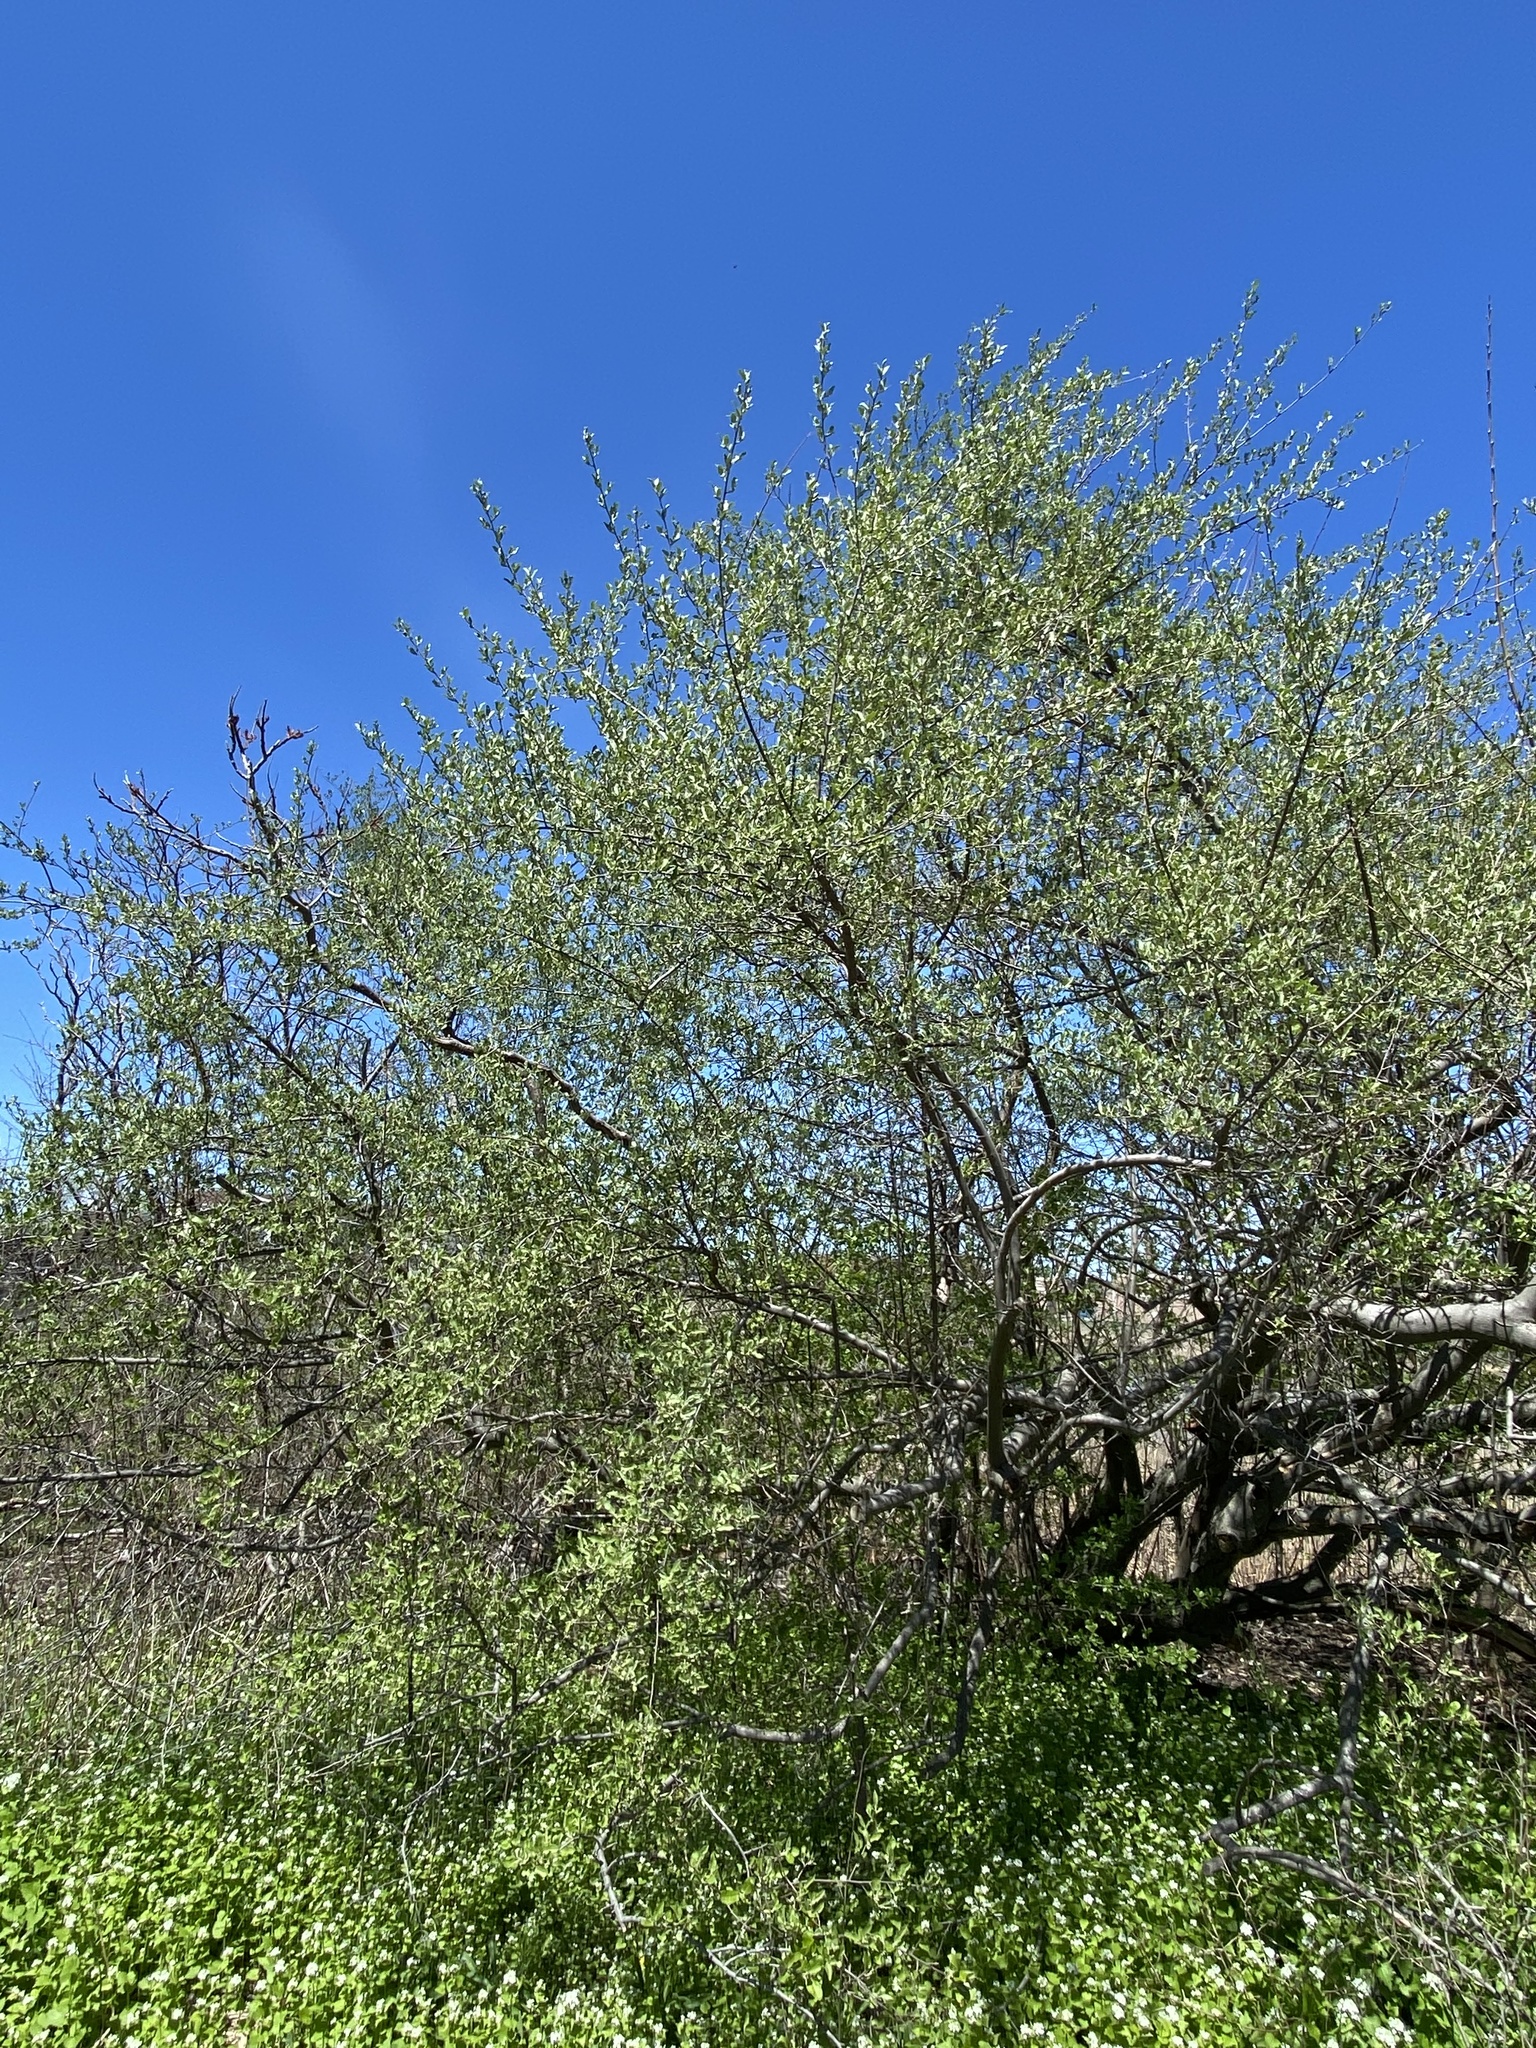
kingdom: Plantae
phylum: Tracheophyta
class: Magnoliopsida
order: Rosales
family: Elaeagnaceae
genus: Elaeagnus
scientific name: Elaeagnus umbellata
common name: Autumn olive
